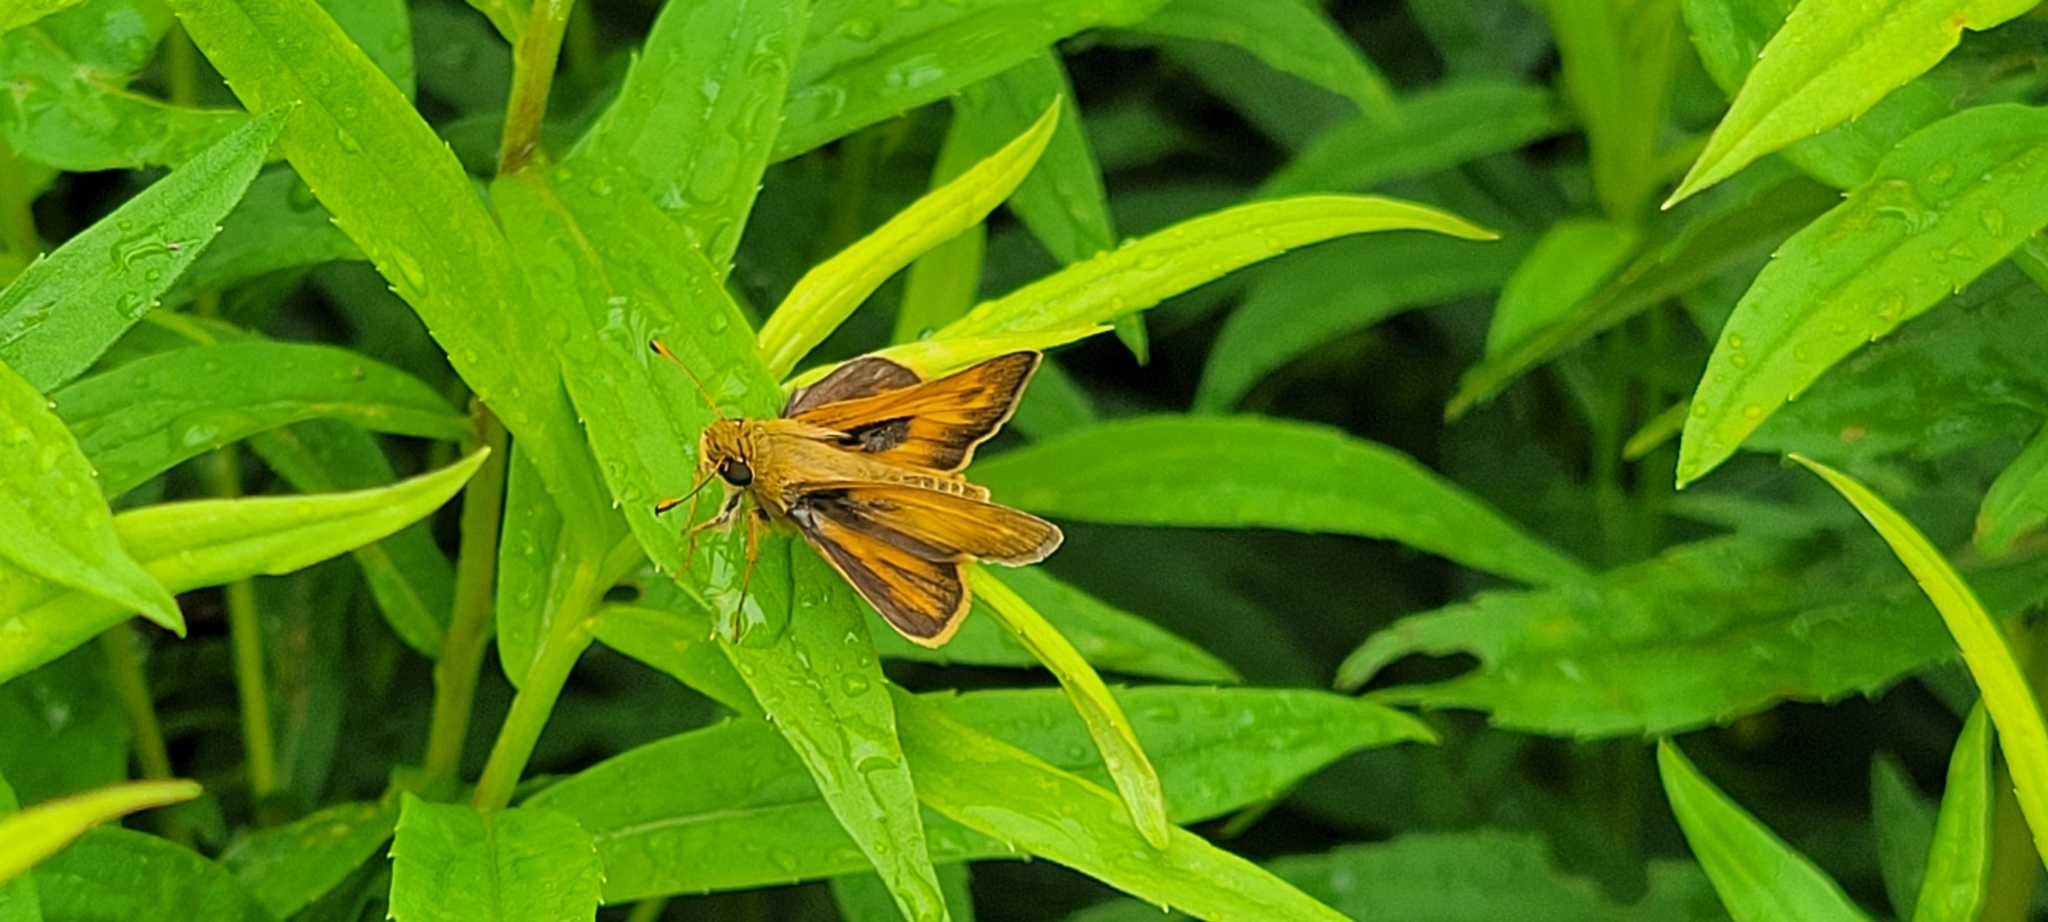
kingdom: Animalia
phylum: Arthropoda
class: Insecta
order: Lepidoptera
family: Hesperiidae
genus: Atalopedes
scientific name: Atalopedes
